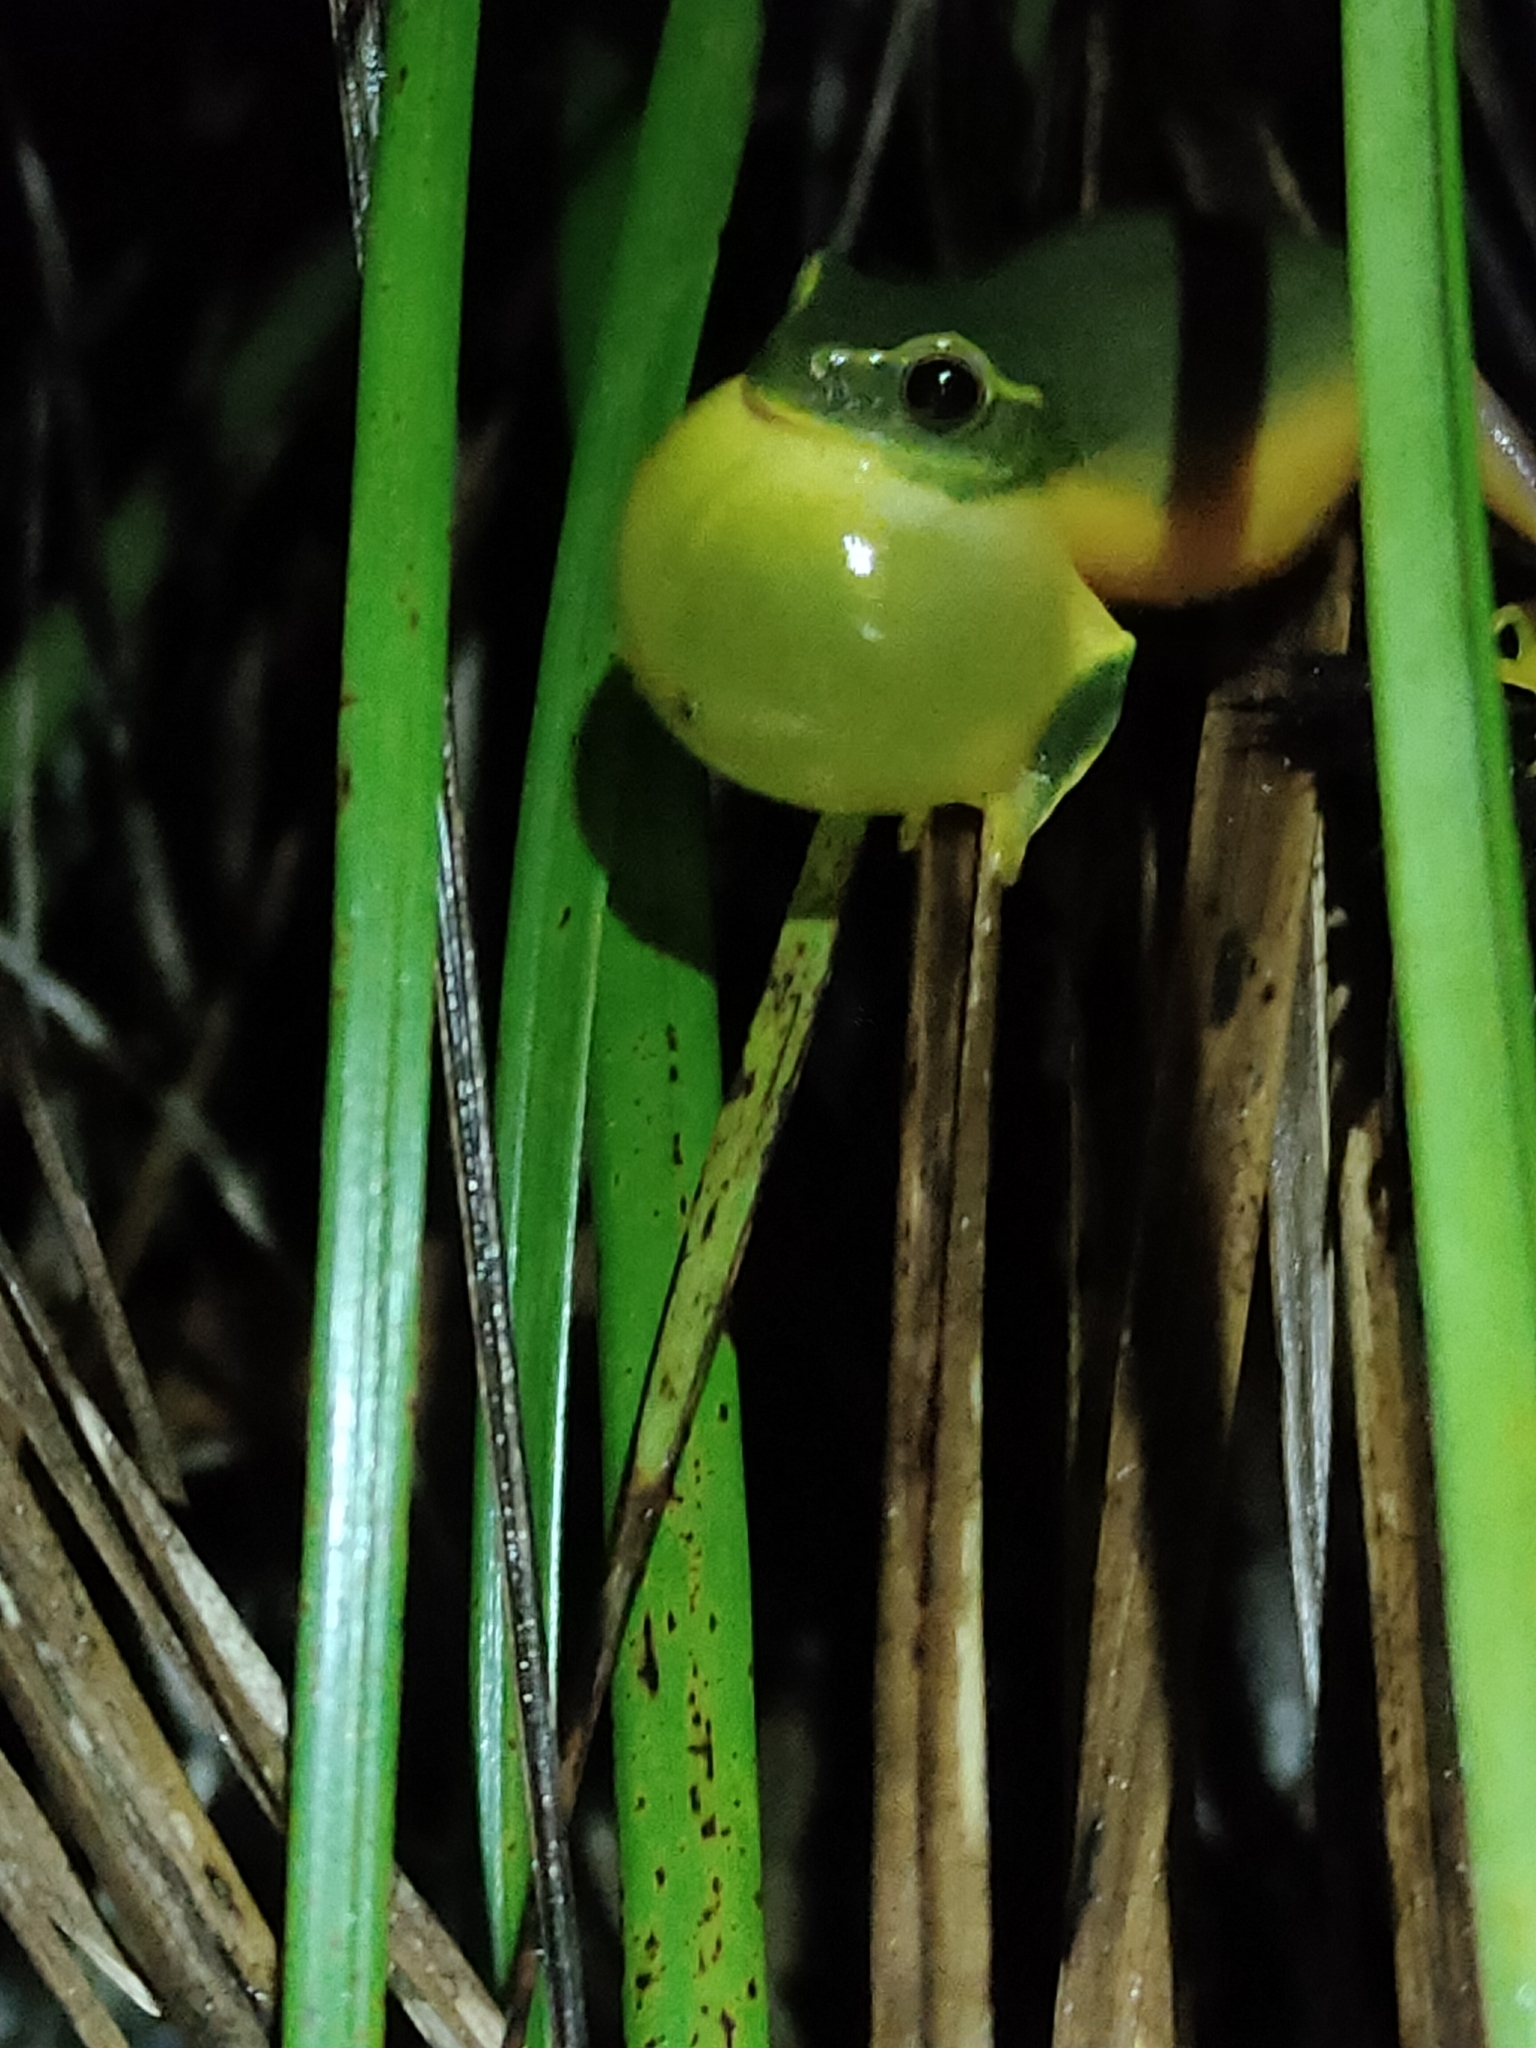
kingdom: Animalia
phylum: Chordata
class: Amphibia
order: Anura
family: Pelodryadidae
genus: Ranoidea
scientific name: Ranoidea gracilenta
